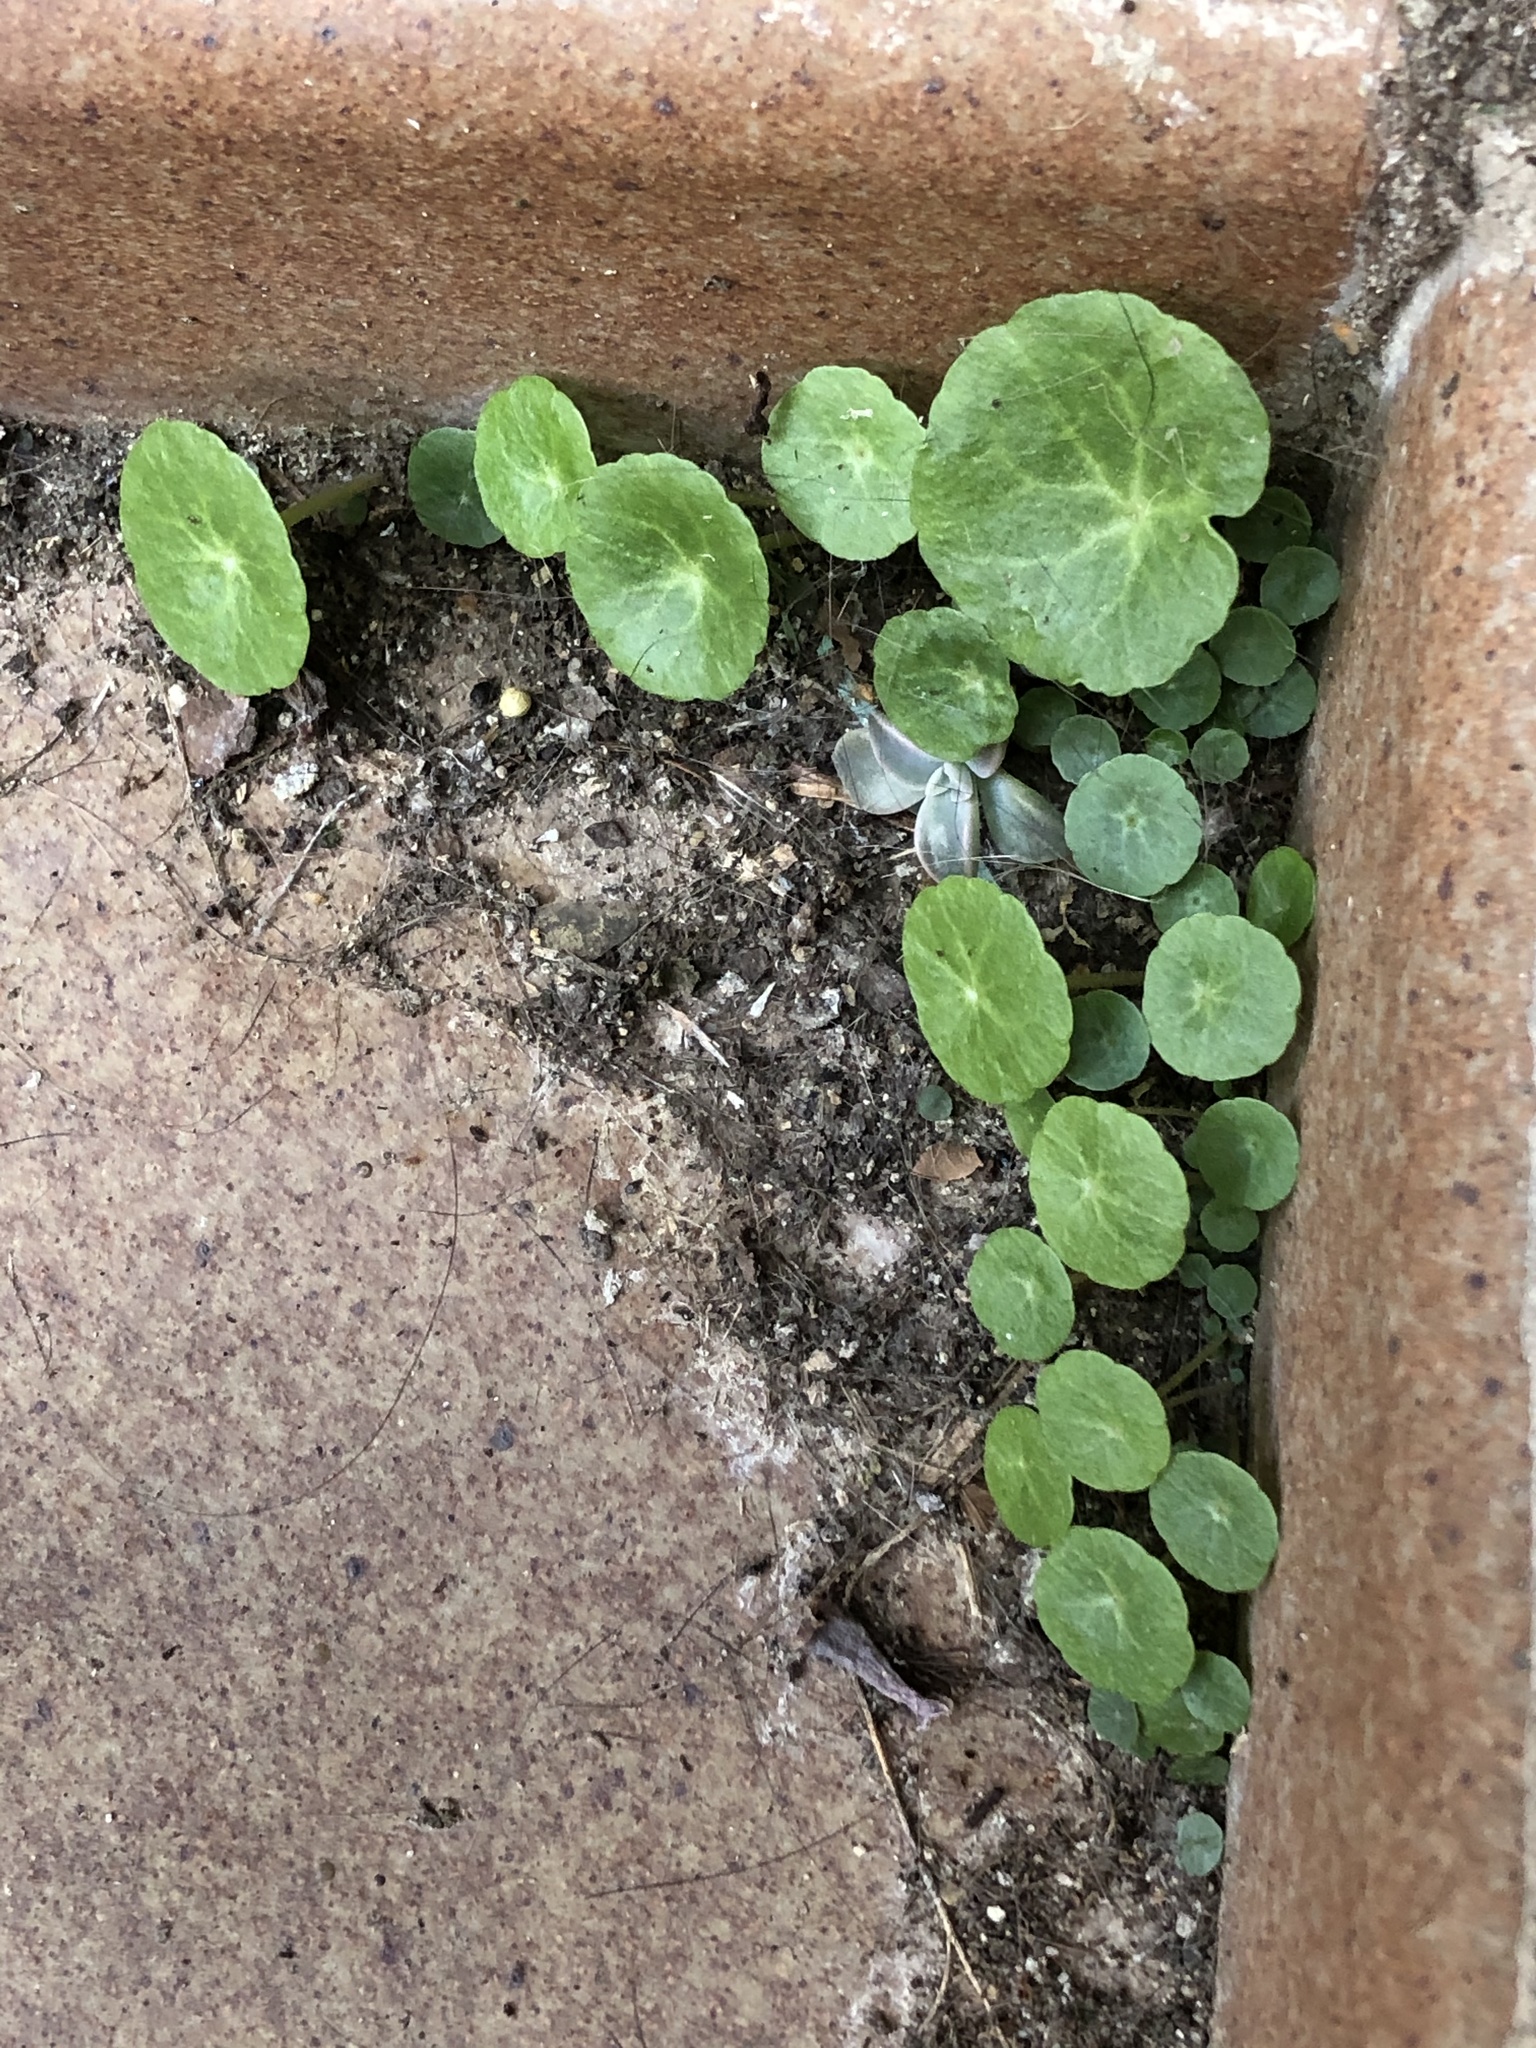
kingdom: Plantae
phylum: Tracheophyta
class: Magnoliopsida
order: Saxifragales
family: Crassulaceae
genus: Umbilicus
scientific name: Umbilicus rupestris
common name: Navelwort
